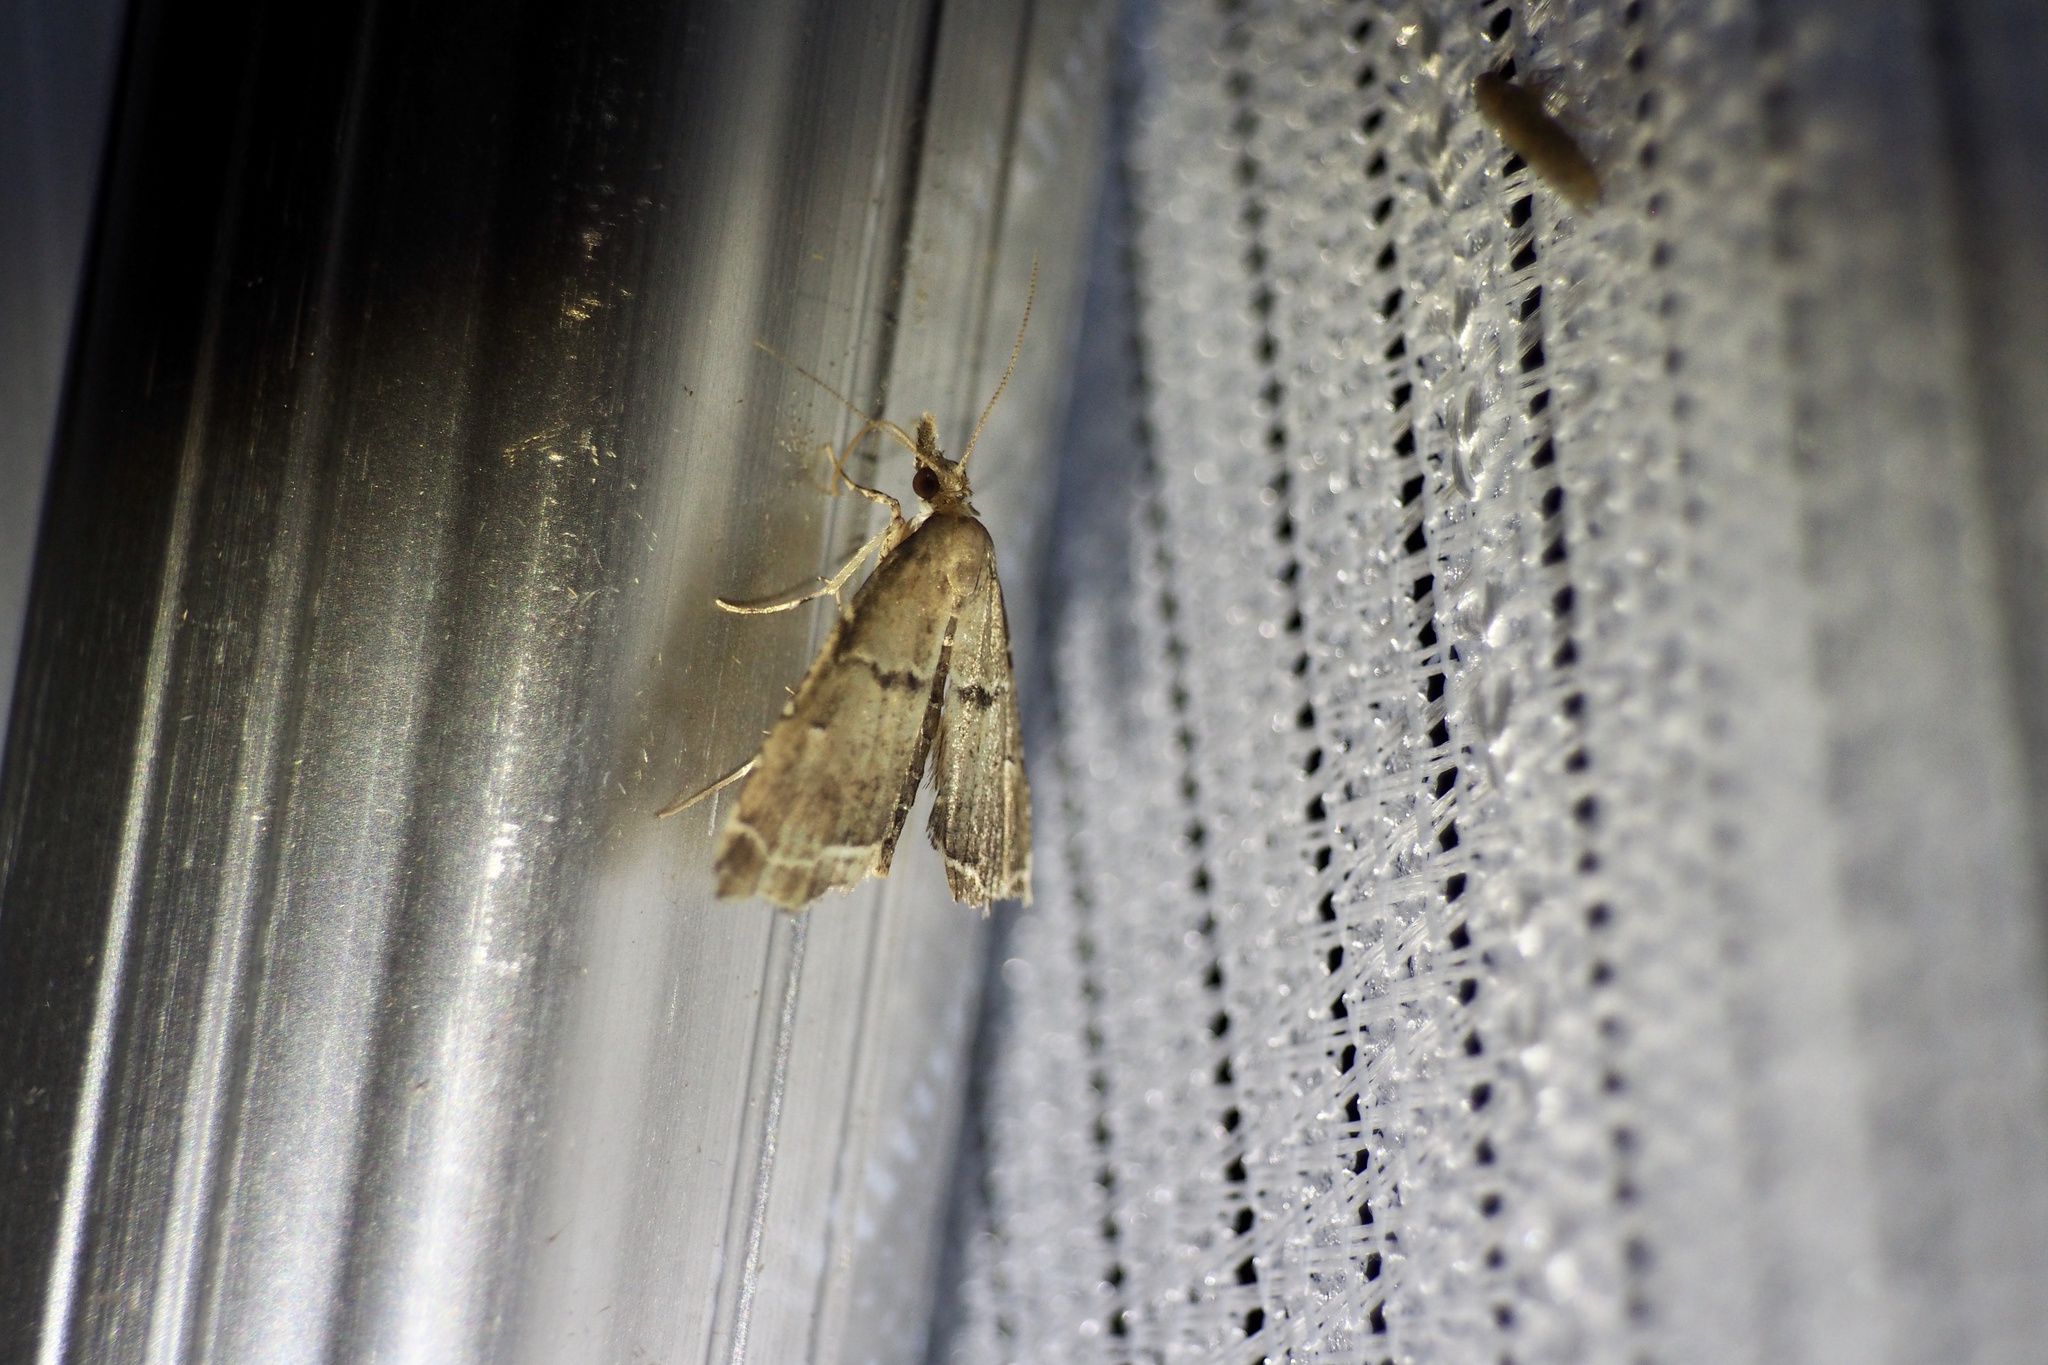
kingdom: Animalia
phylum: Arthropoda
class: Insecta
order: Lepidoptera
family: Crambidae
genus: Diplopseustis
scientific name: Diplopseustis perieresalis
